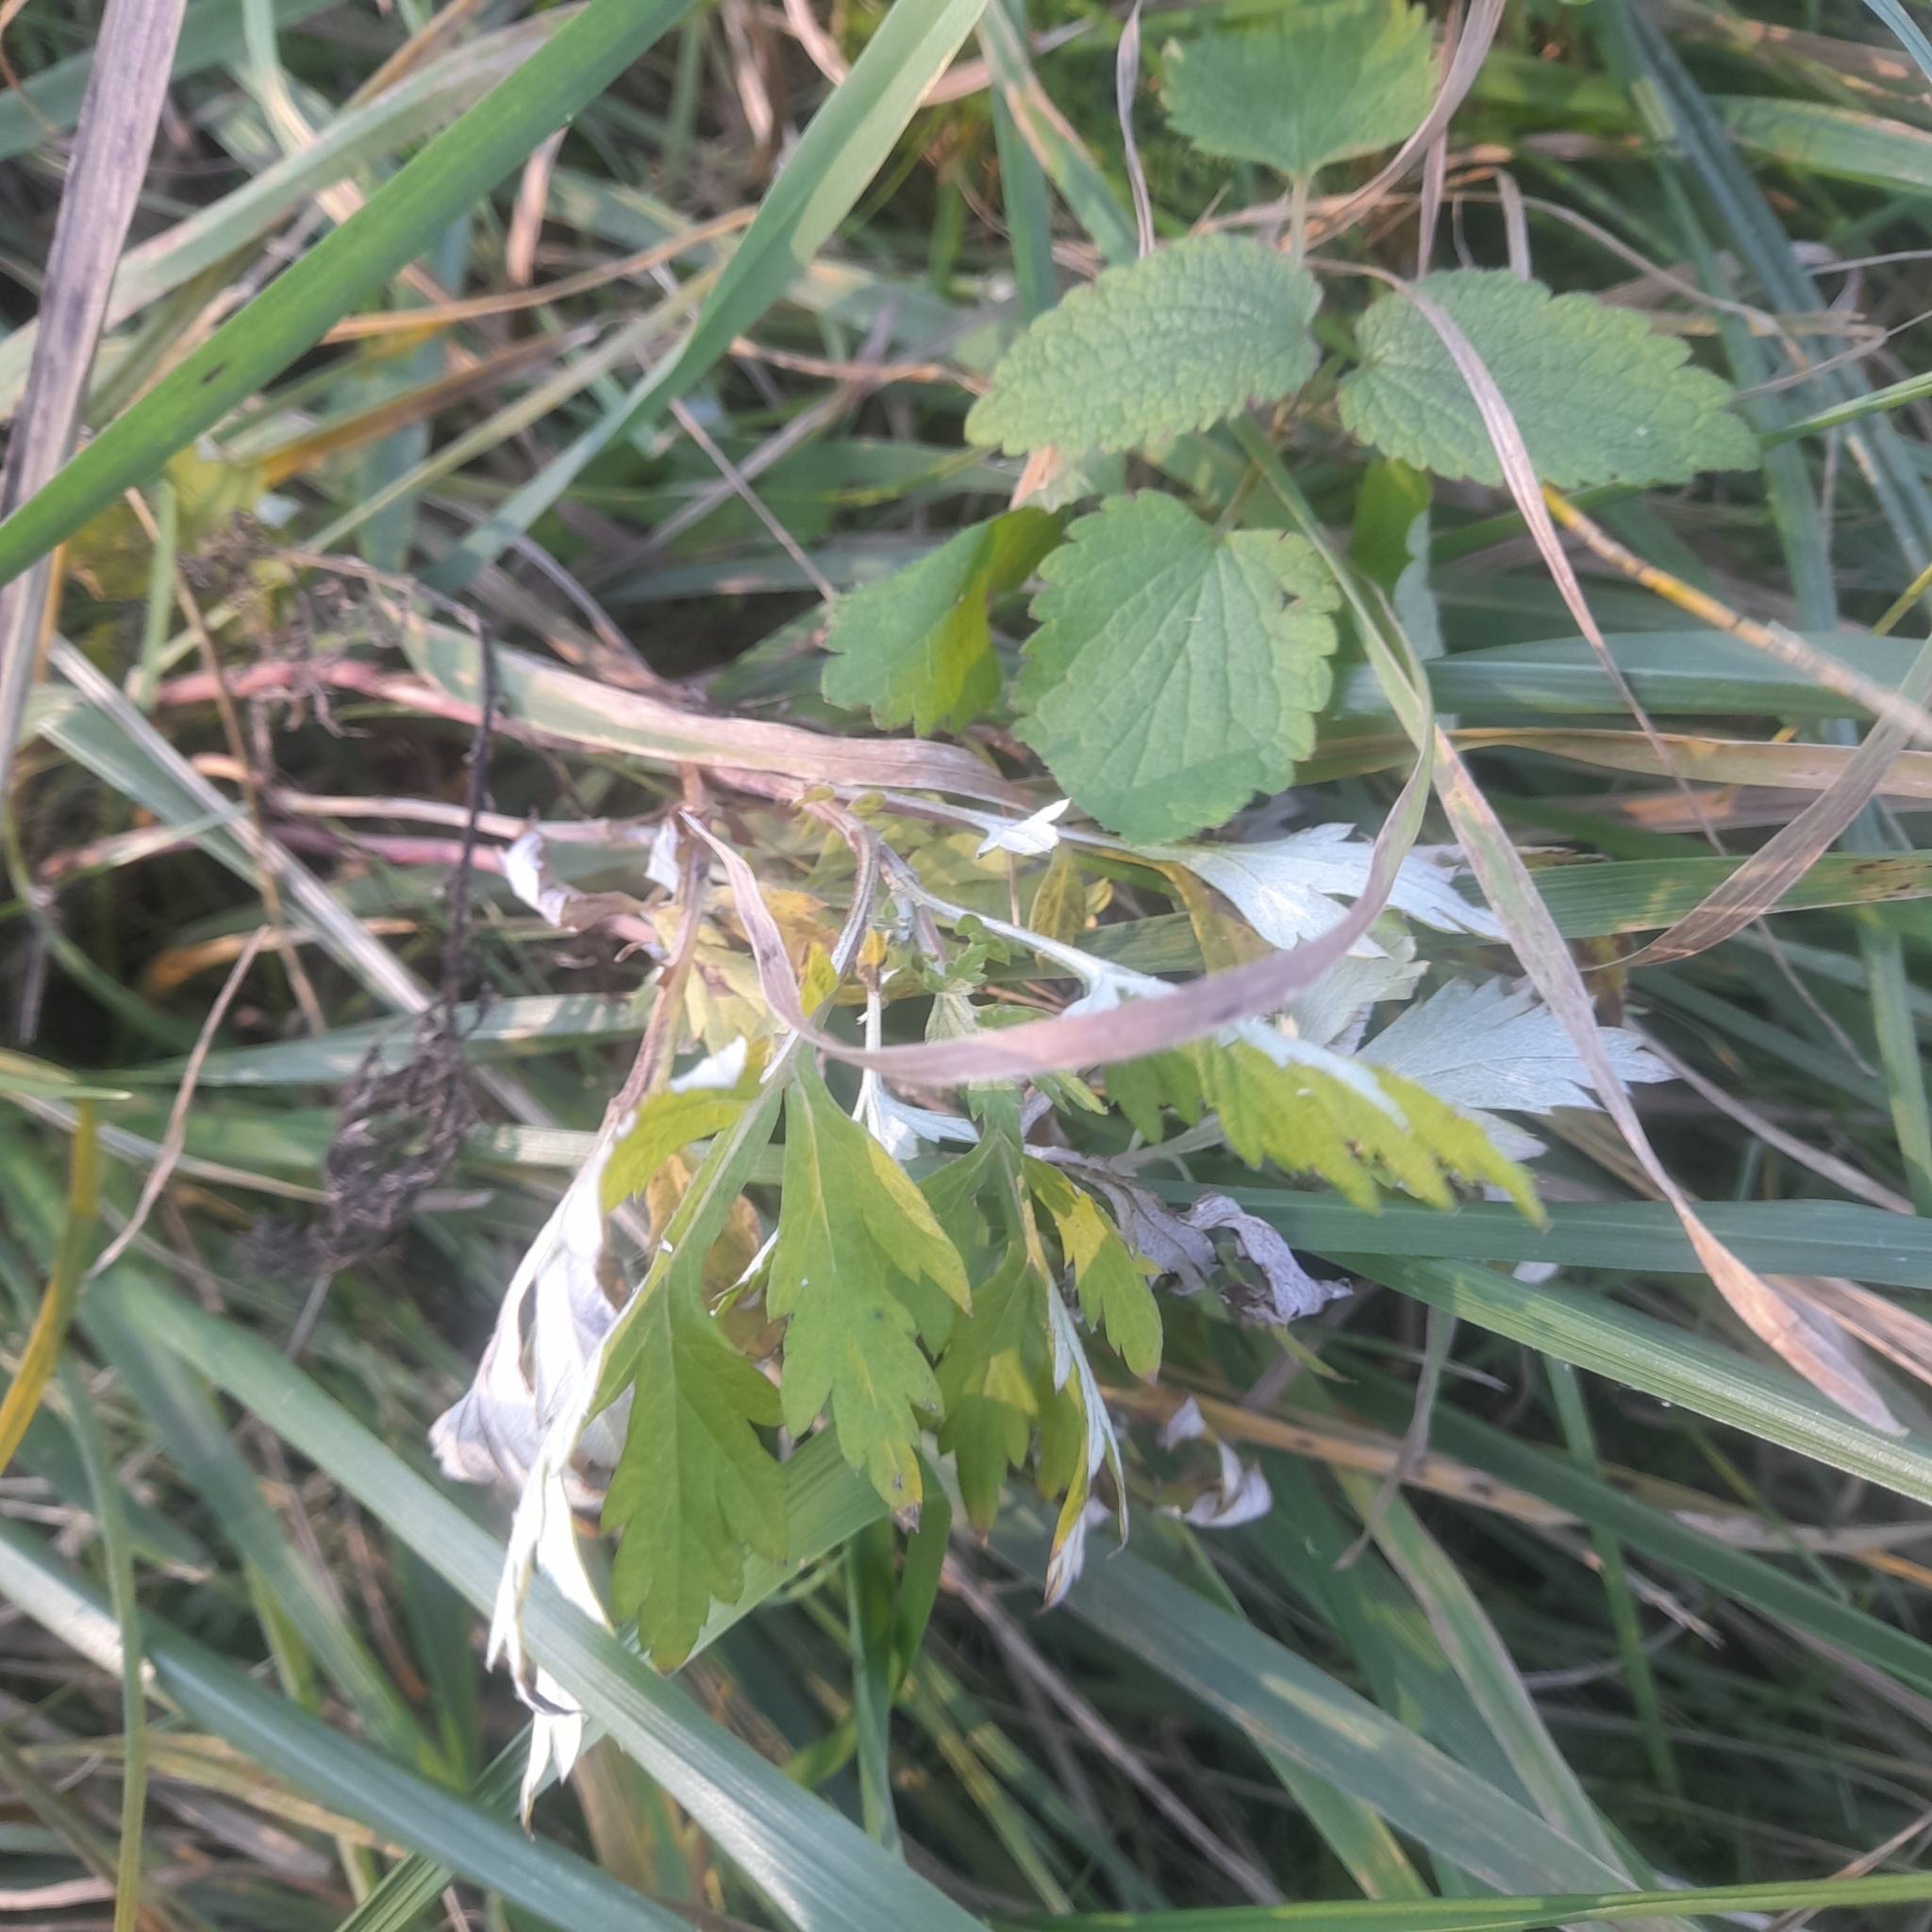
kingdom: Plantae
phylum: Tracheophyta
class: Magnoliopsida
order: Asterales
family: Asteraceae
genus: Artemisia
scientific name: Artemisia vulgaris
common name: Mugwort
